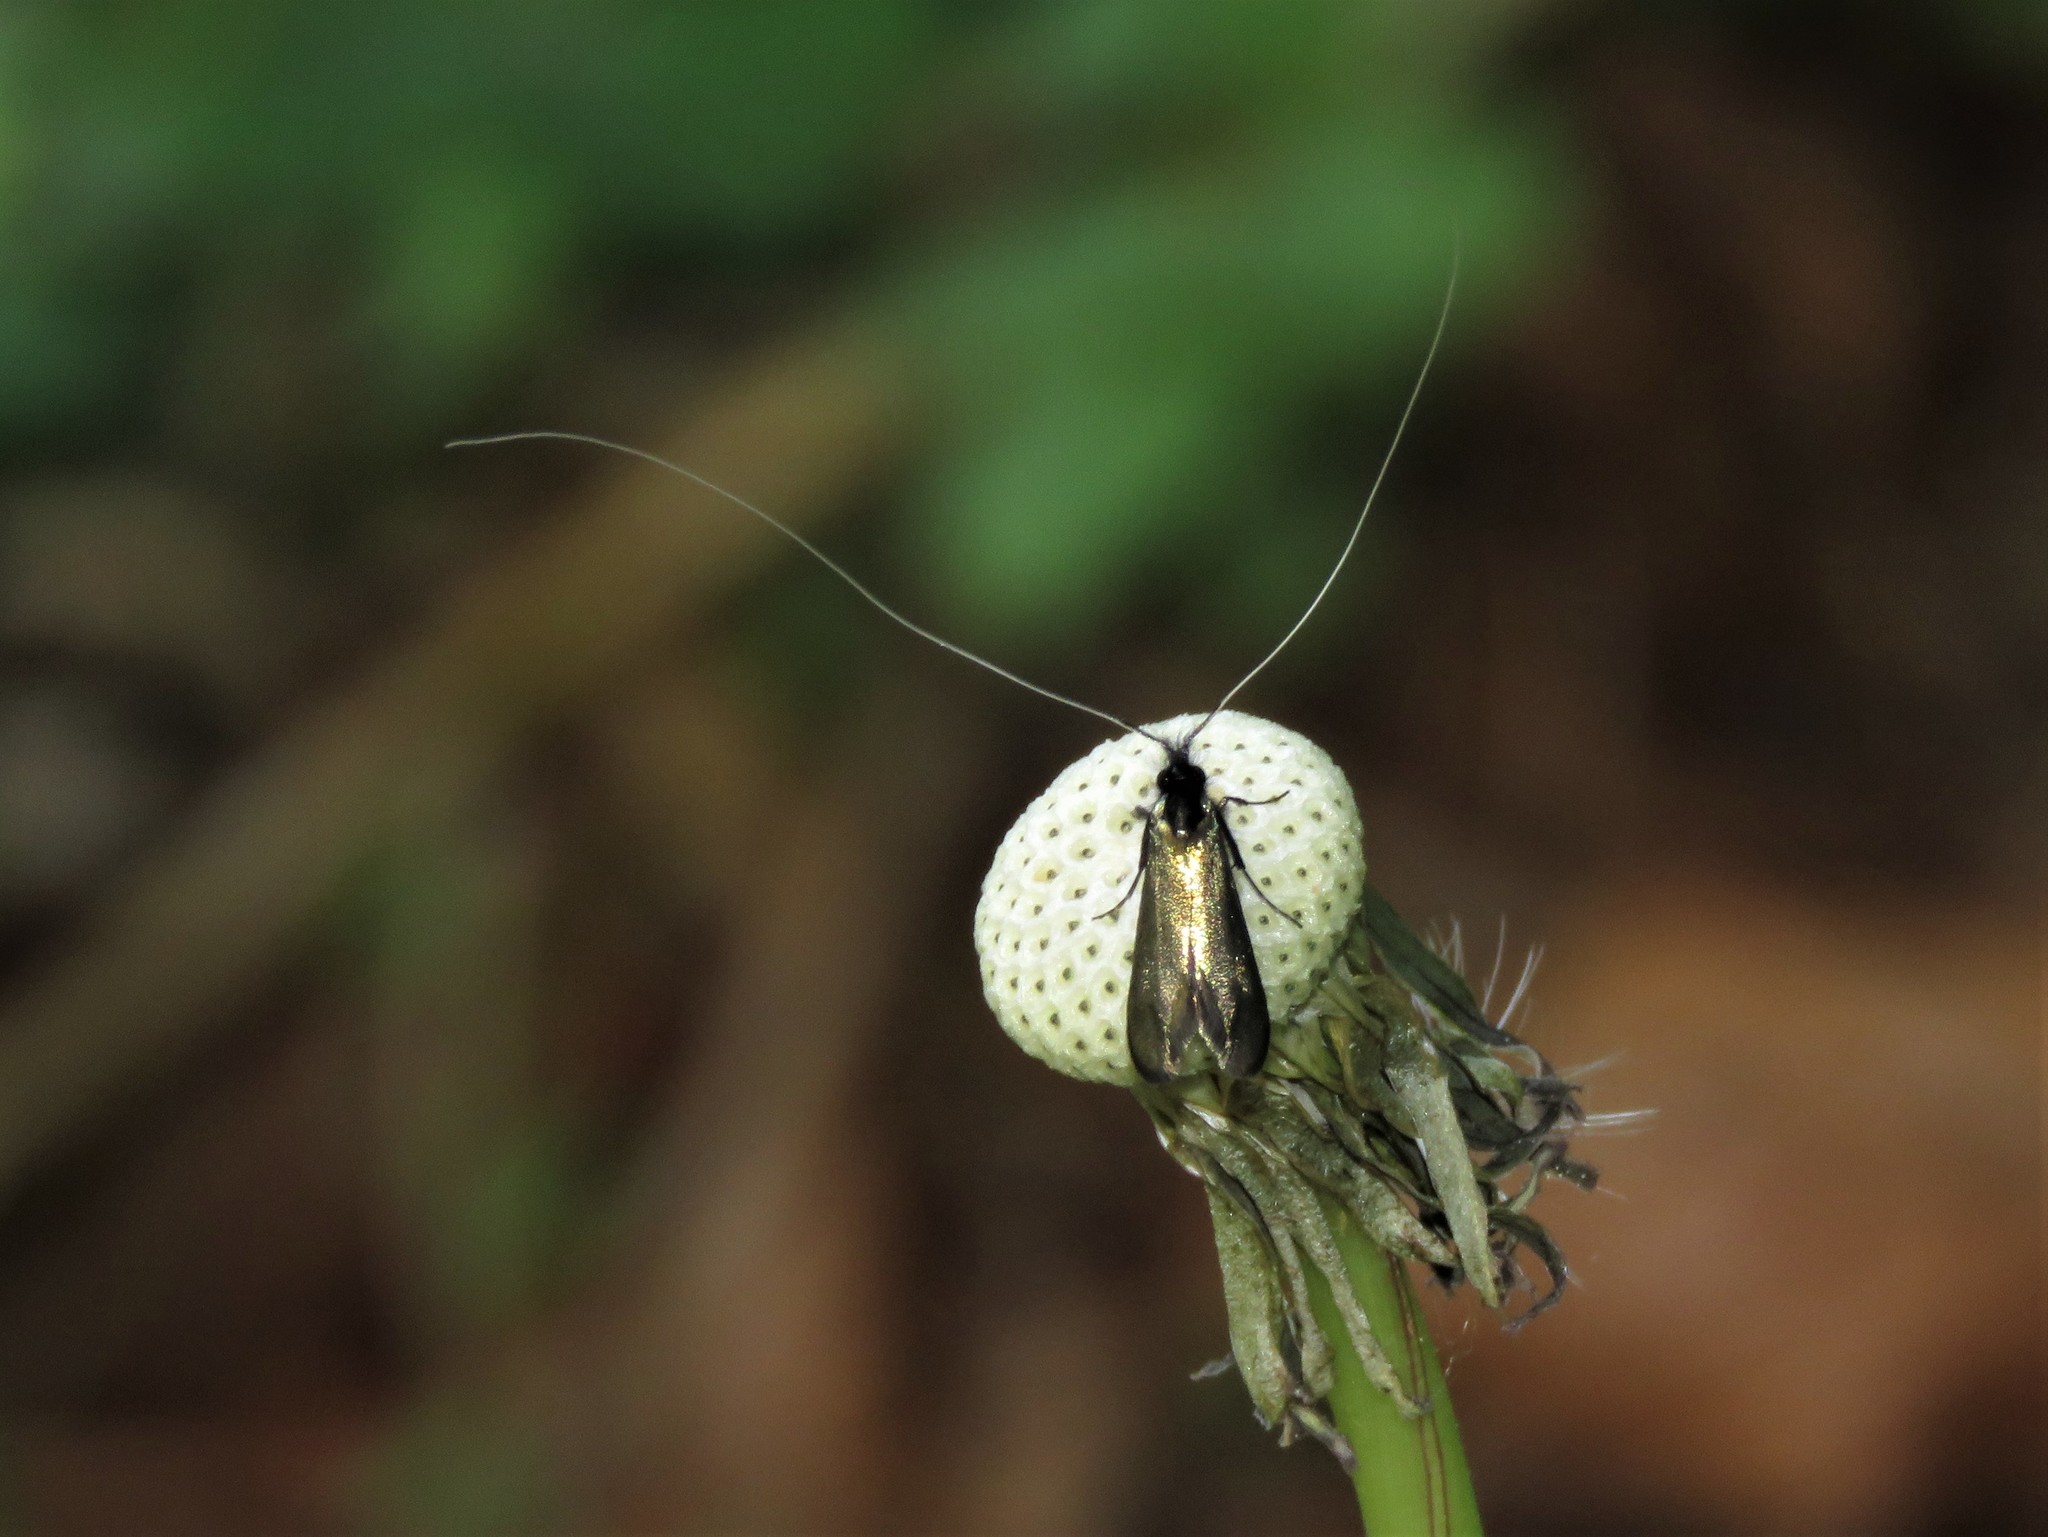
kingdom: Animalia
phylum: Arthropoda
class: Insecta
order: Lepidoptera
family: Adelidae
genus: Adela
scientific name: Adela viridella
